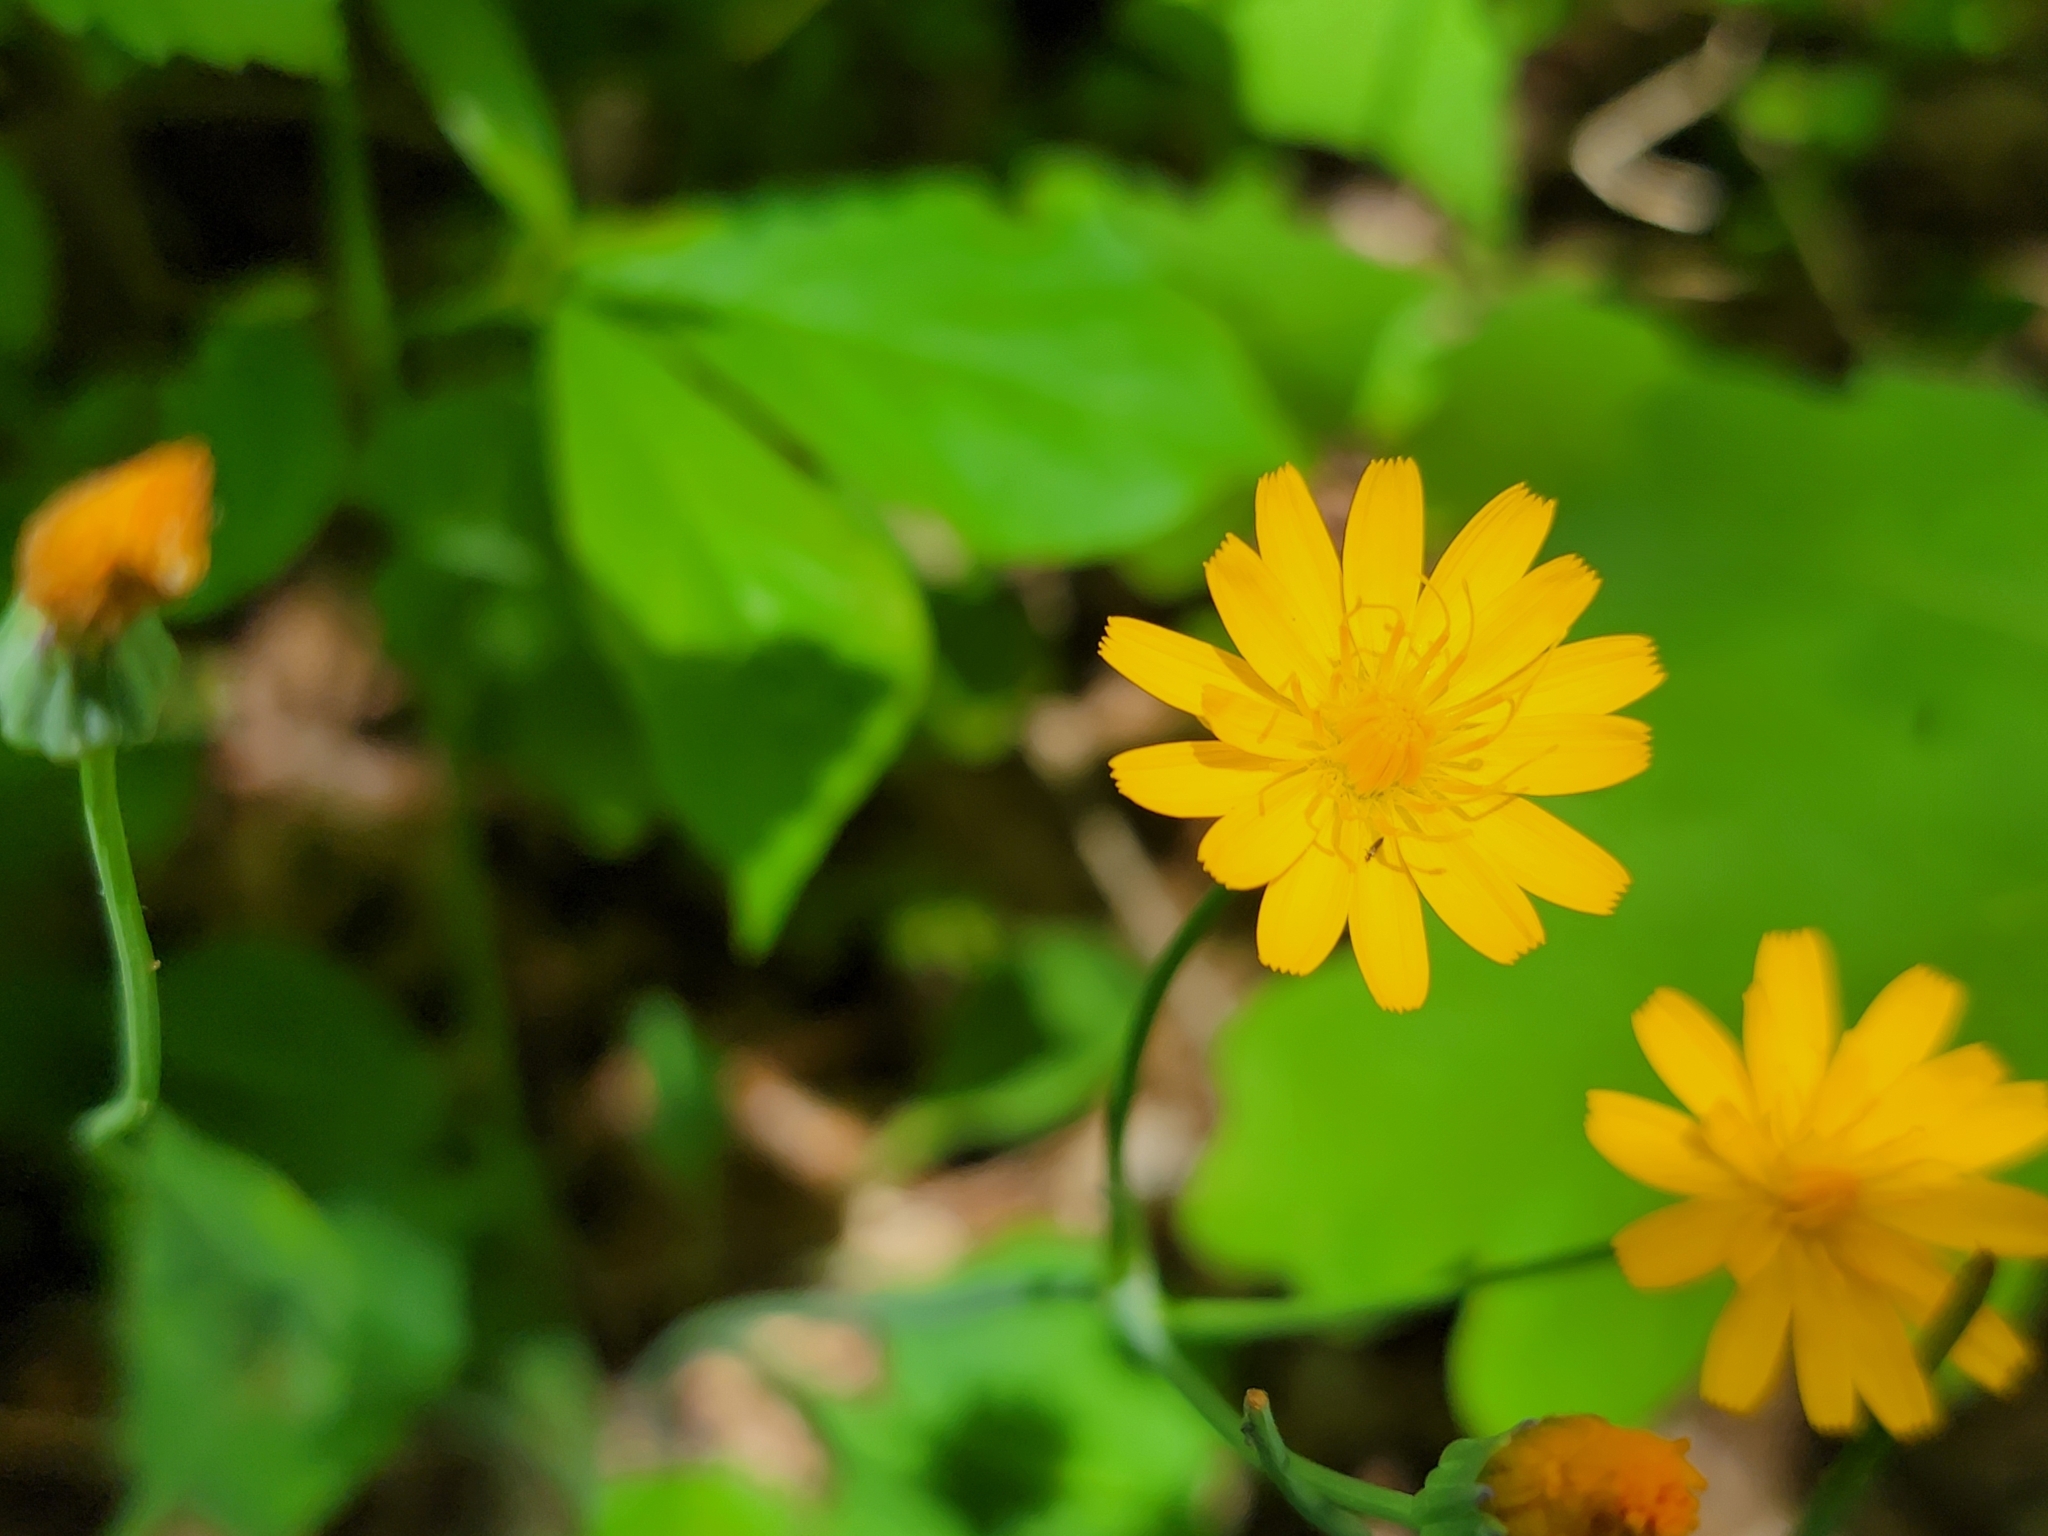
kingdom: Plantae
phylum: Tracheophyta
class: Magnoliopsida
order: Asterales
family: Asteraceae
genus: Krigia
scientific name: Krigia biflora
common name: Orange dwarf-dandelion
